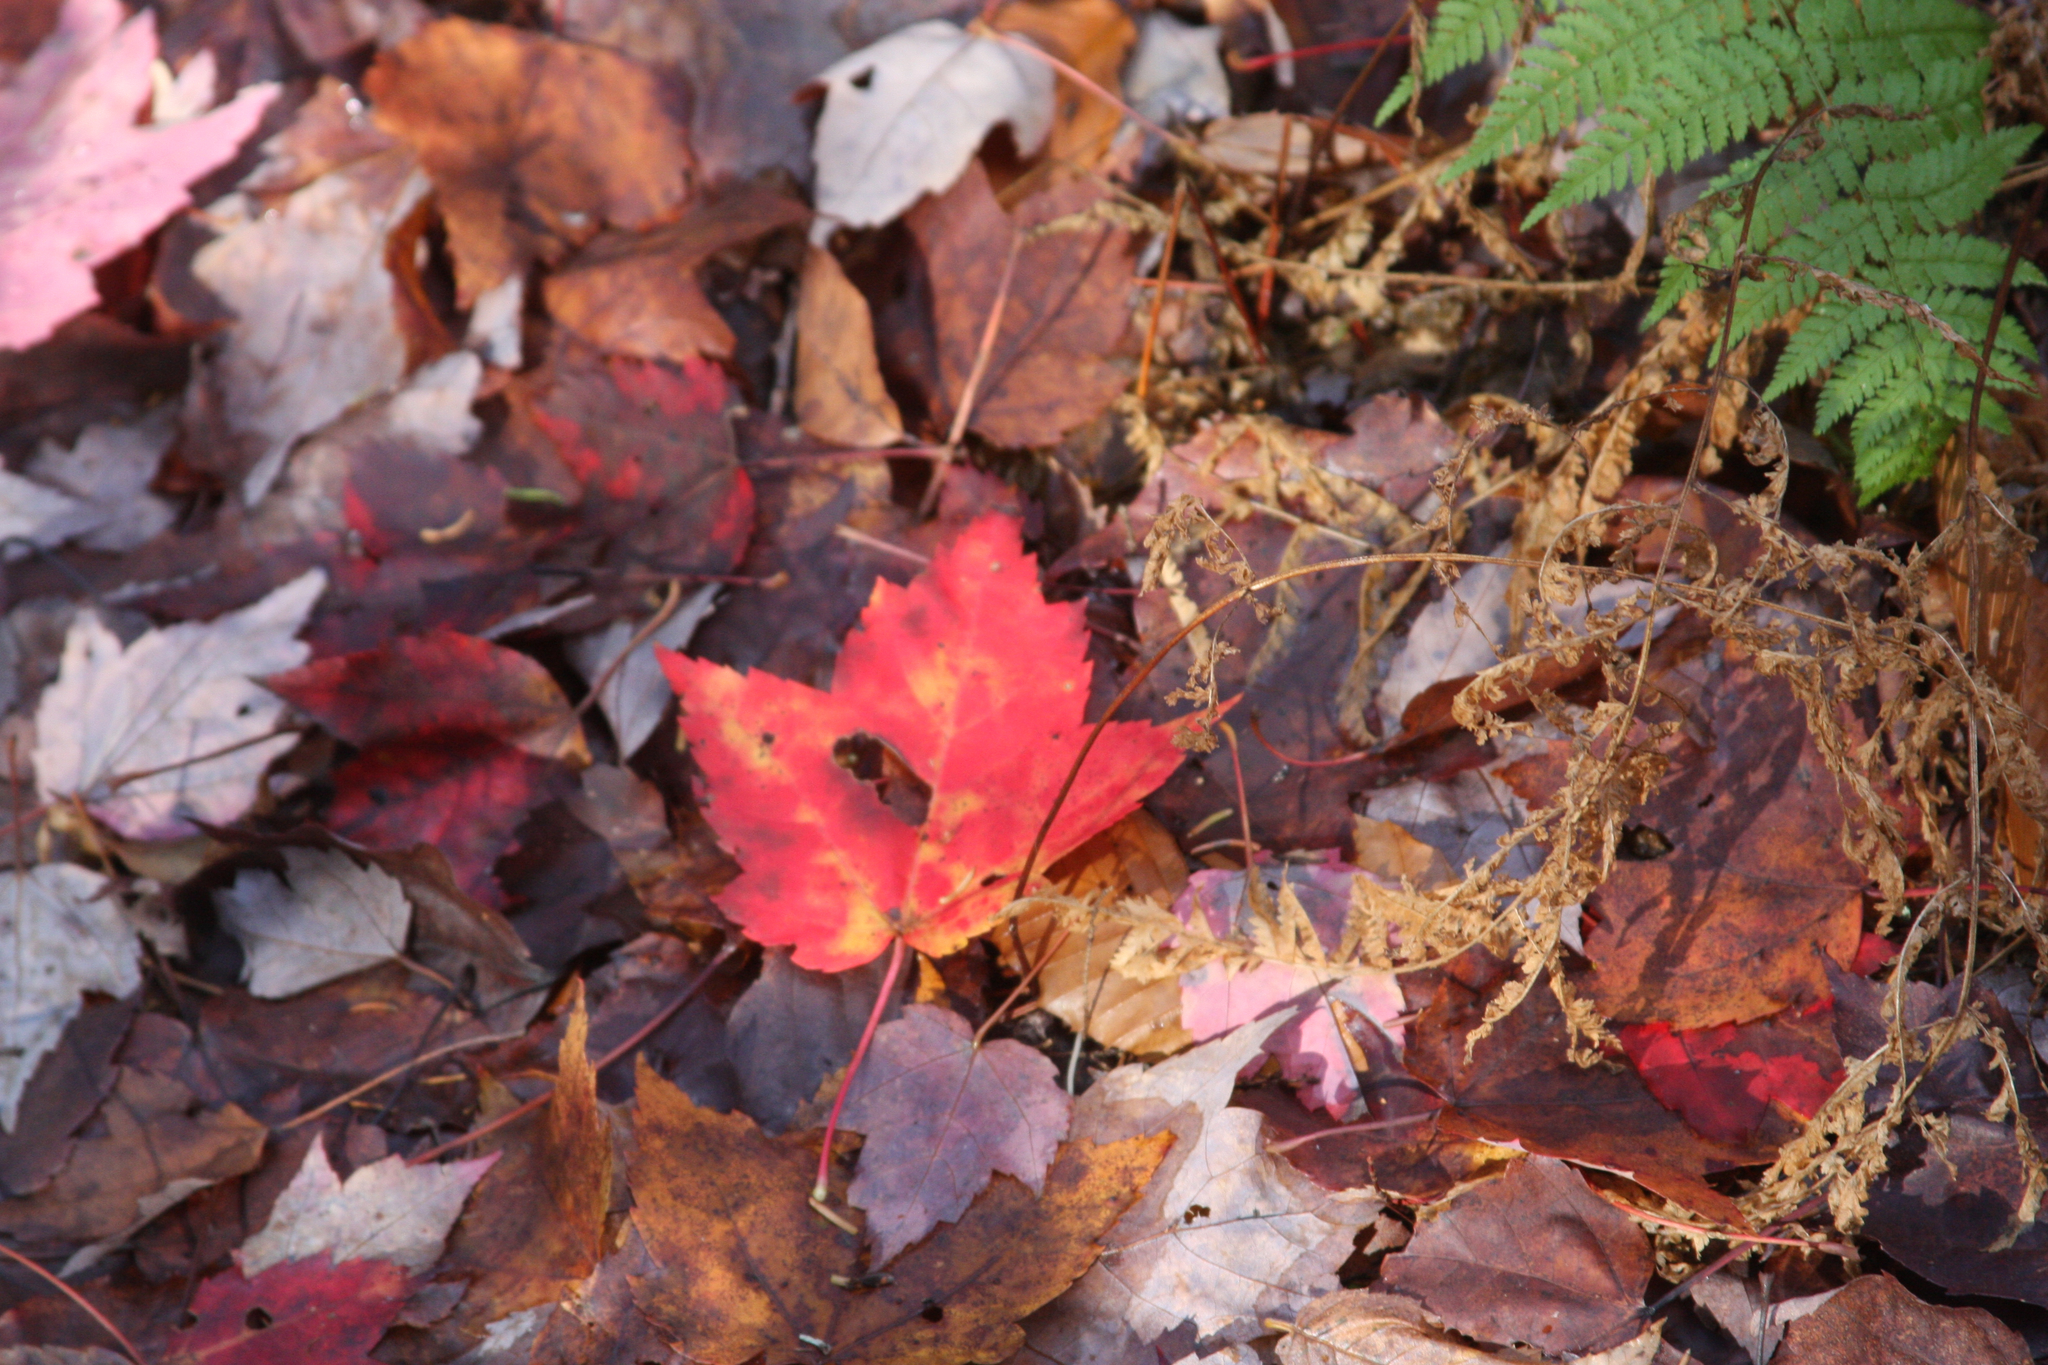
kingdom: Plantae
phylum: Tracheophyta
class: Magnoliopsida
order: Sapindales
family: Sapindaceae
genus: Acer
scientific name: Acer rubrum
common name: Red maple
